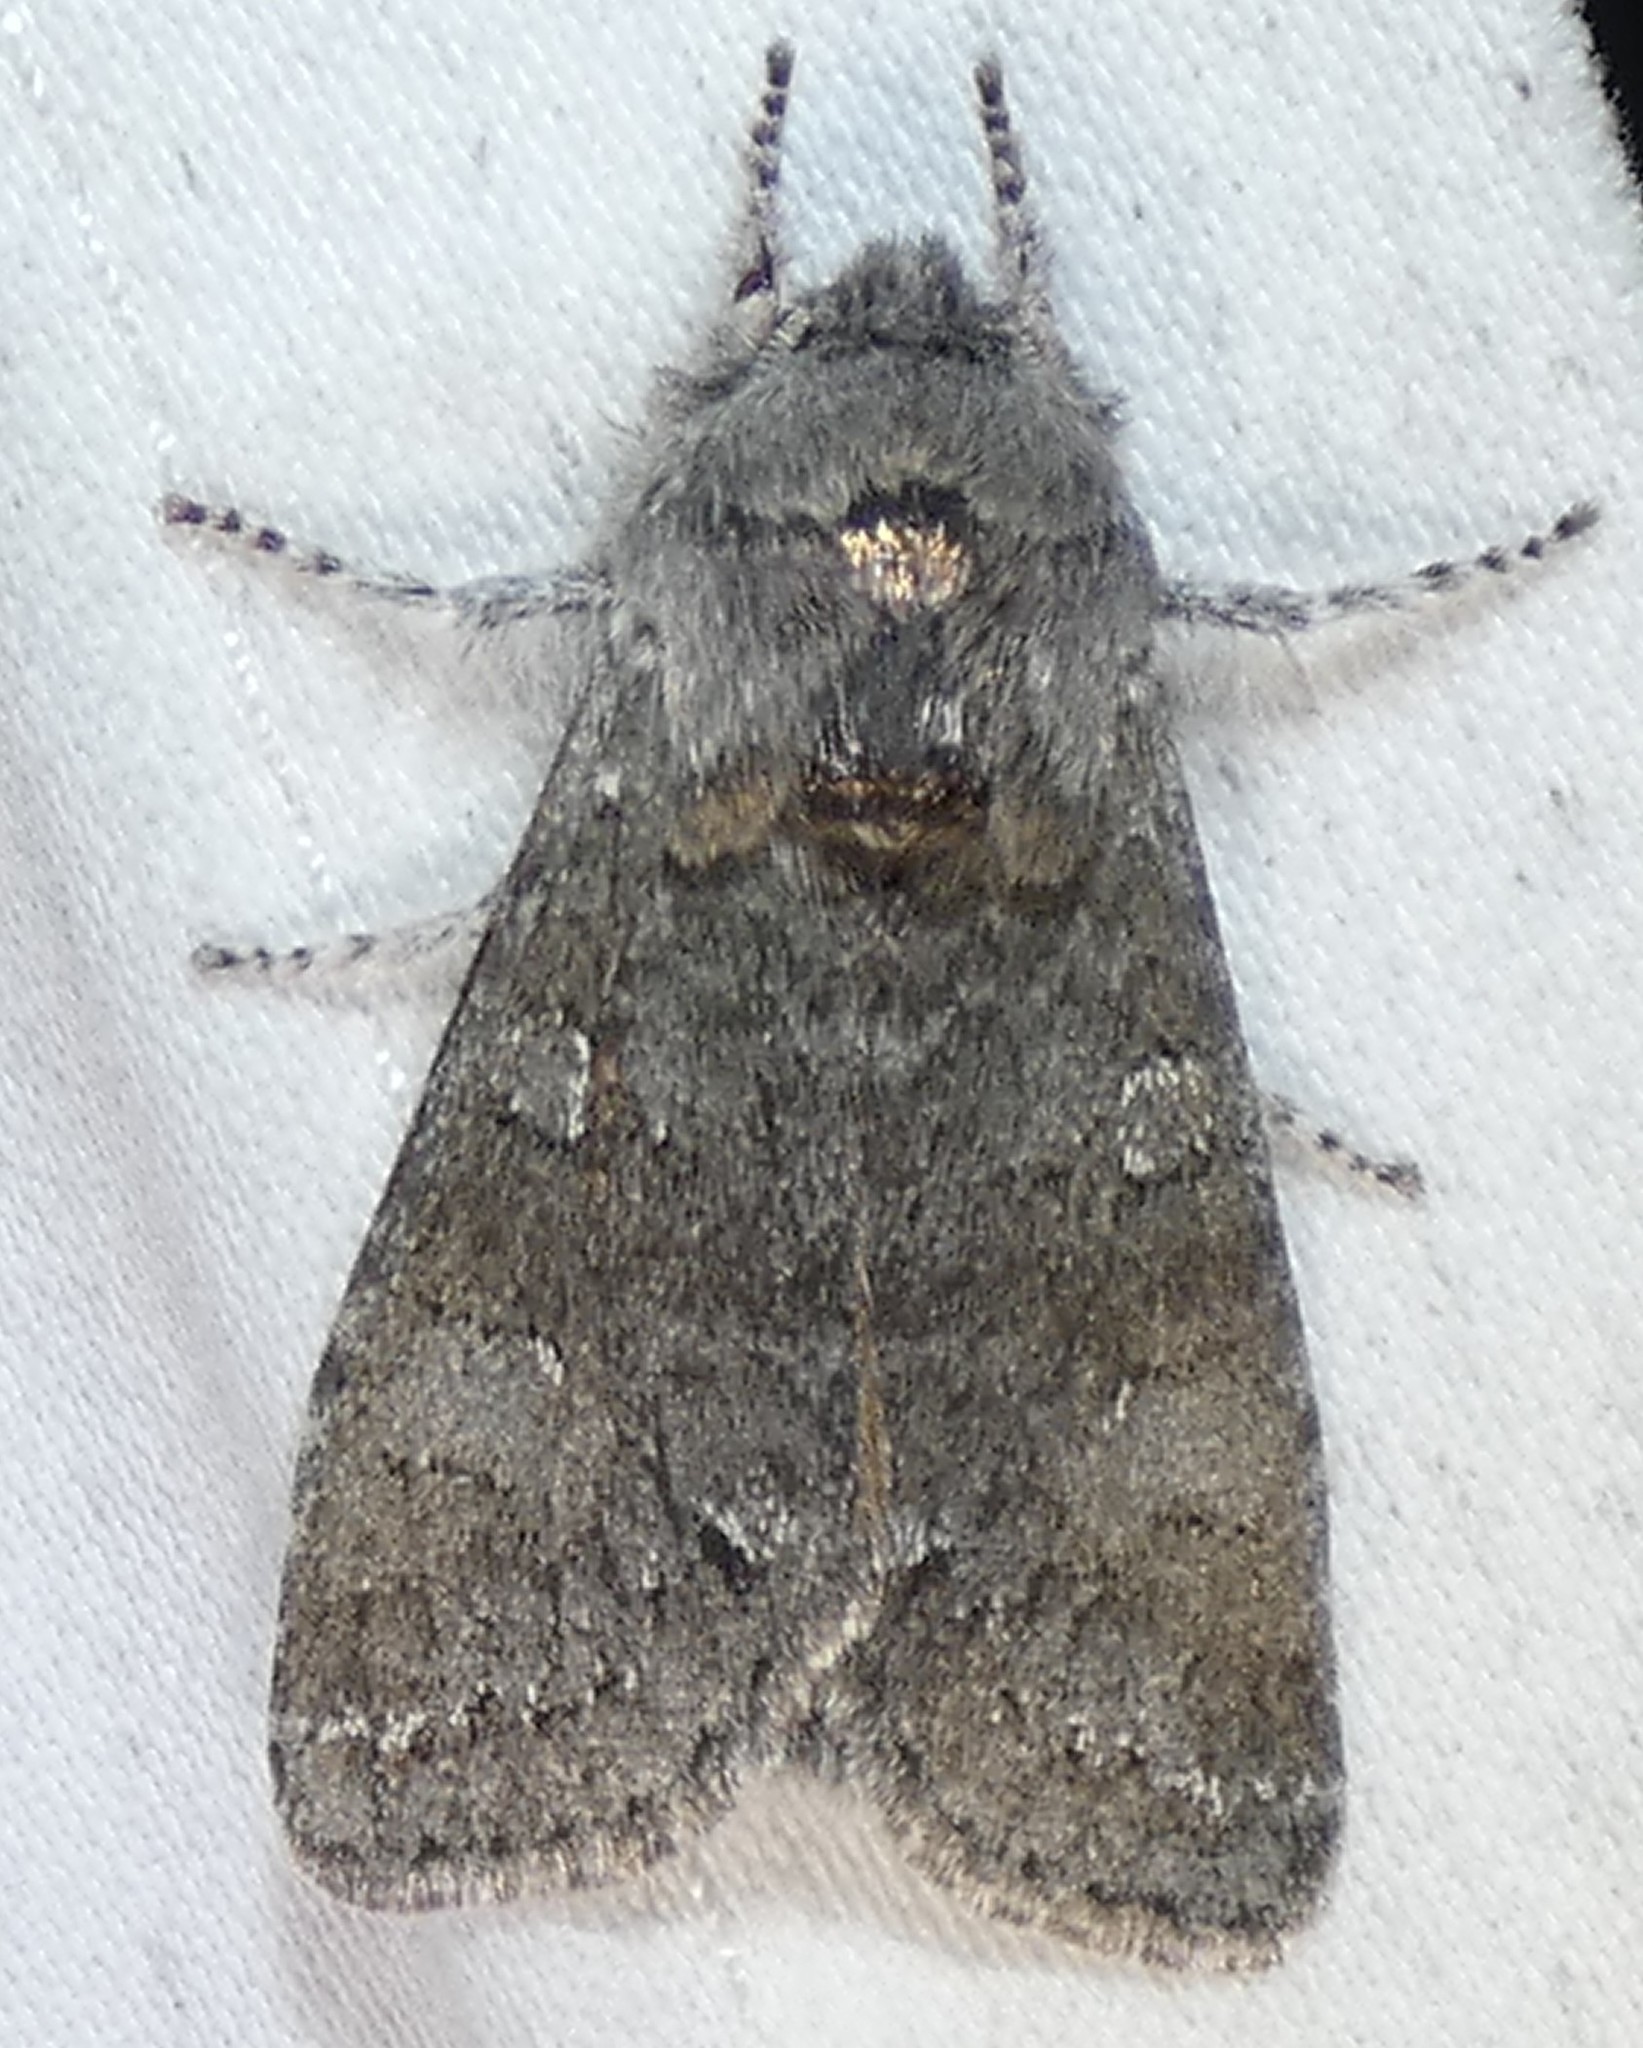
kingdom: Animalia
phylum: Arthropoda
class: Insecta
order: Lepidoptera
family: Noctuidae
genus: Psaphida
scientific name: Psaphida rolandi
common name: Roland's sallow
